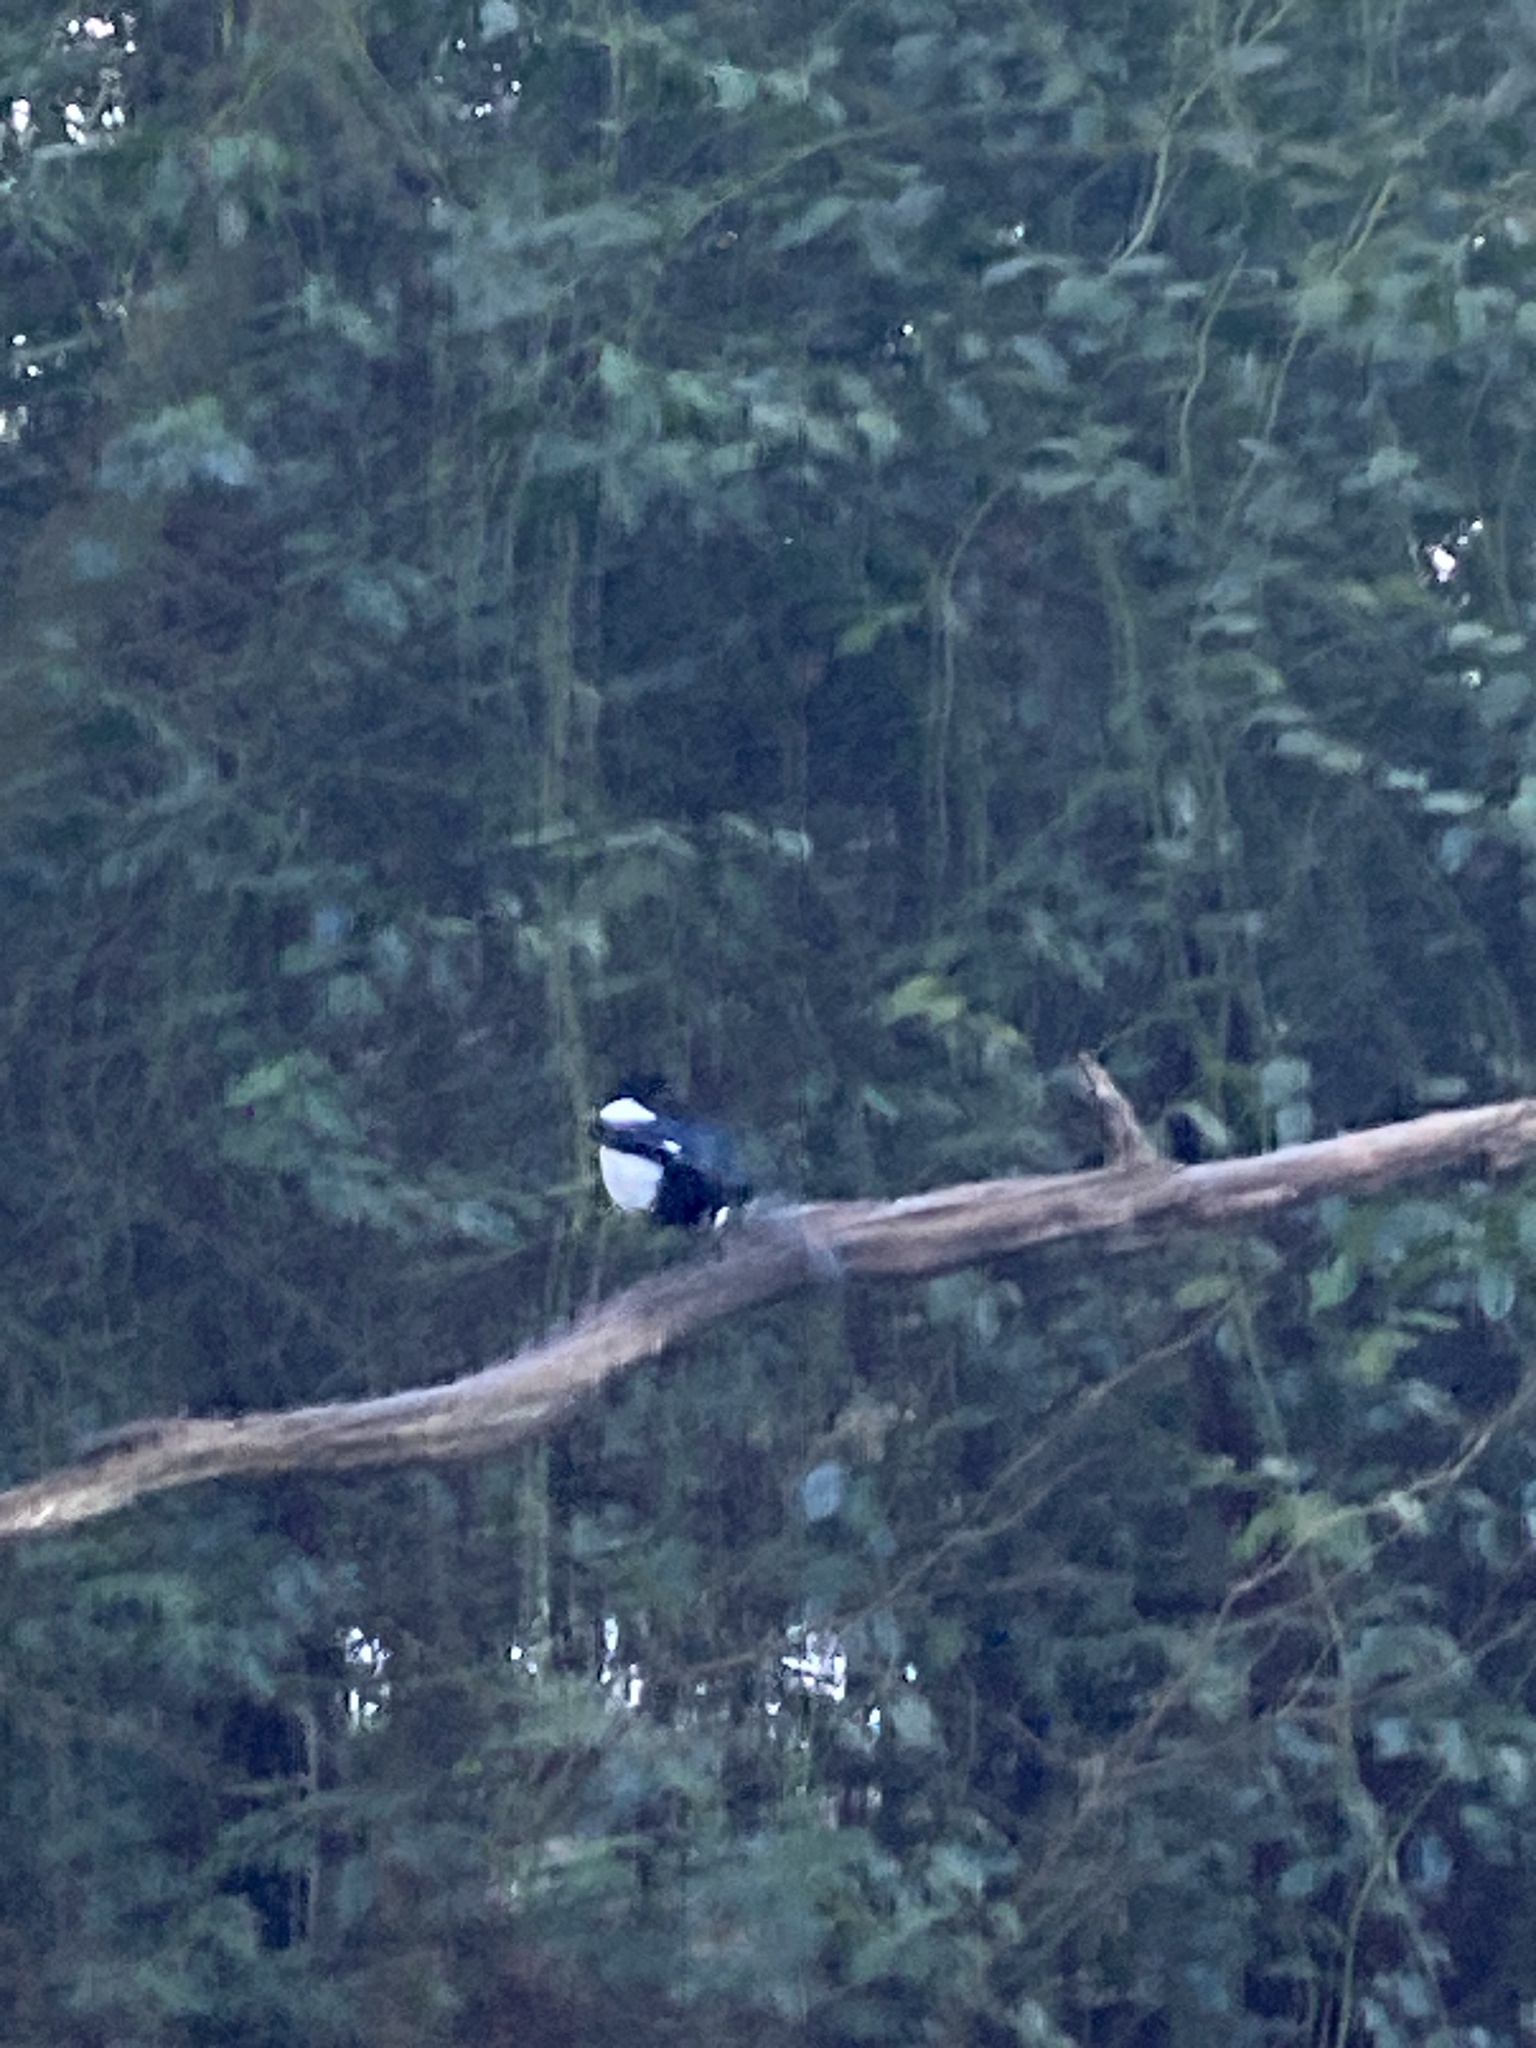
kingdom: Animalia
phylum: Chordata
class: Aves
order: Passeriformes
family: Corvidae
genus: Pica
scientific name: Pica pica
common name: Eurasian magpie
